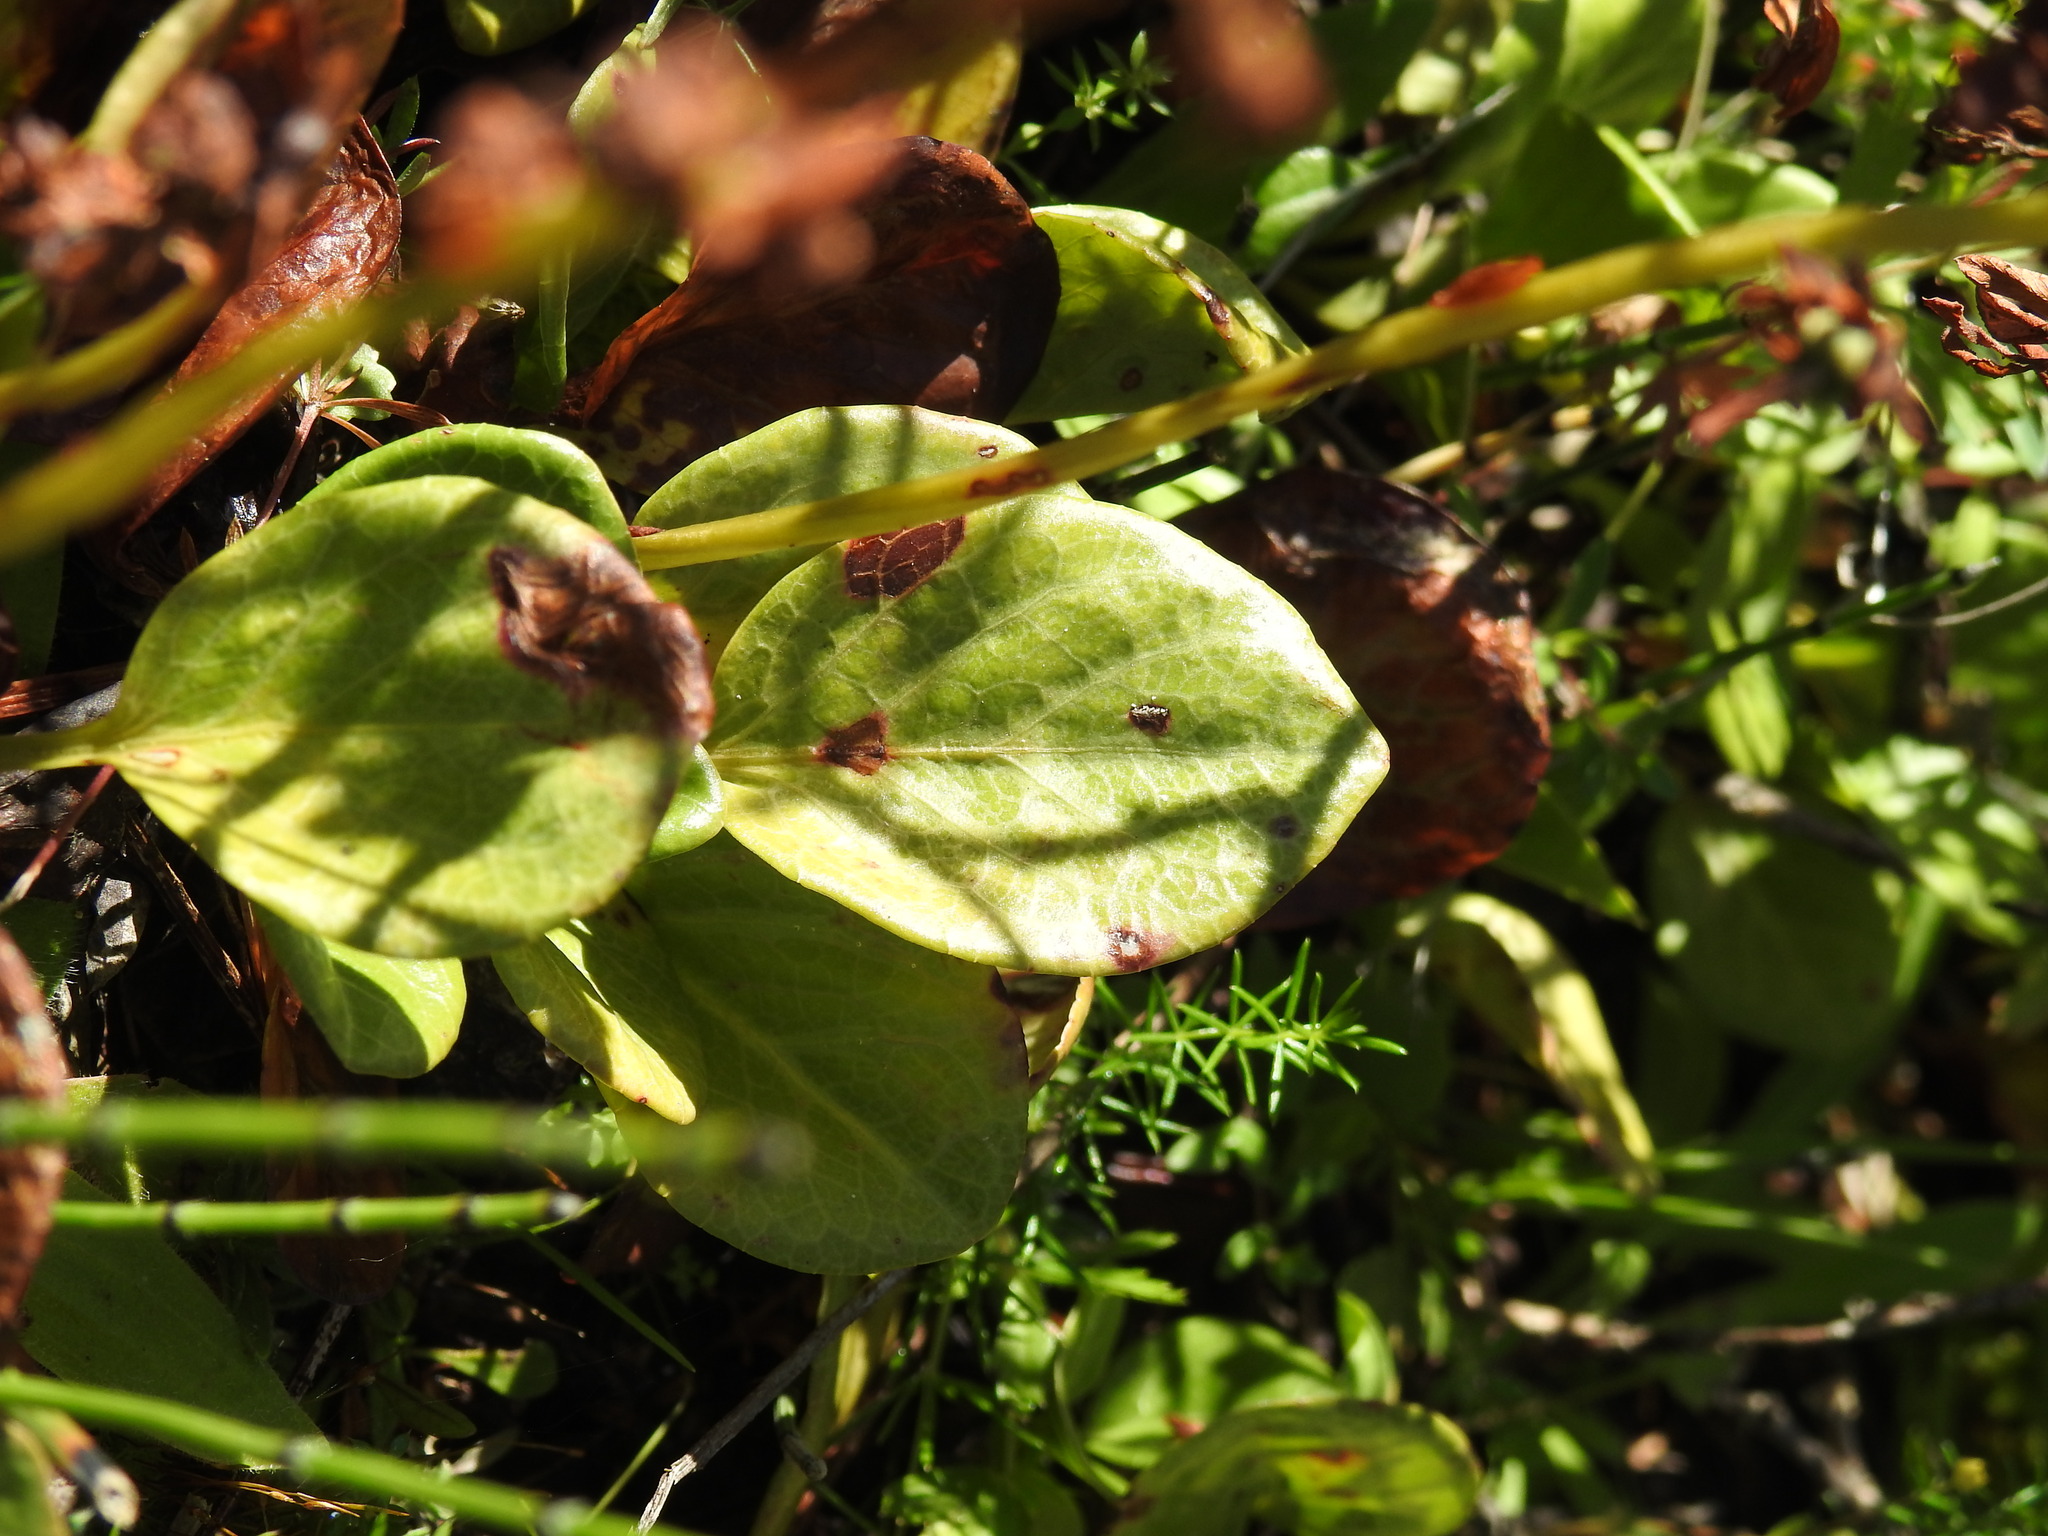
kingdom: Plantae
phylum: Tracheophyta
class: Magnoliopsida
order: Ericales
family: Ericaceae
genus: Pyrola
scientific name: Pyrola rotundifolia
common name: Round-leaved wintergreen
